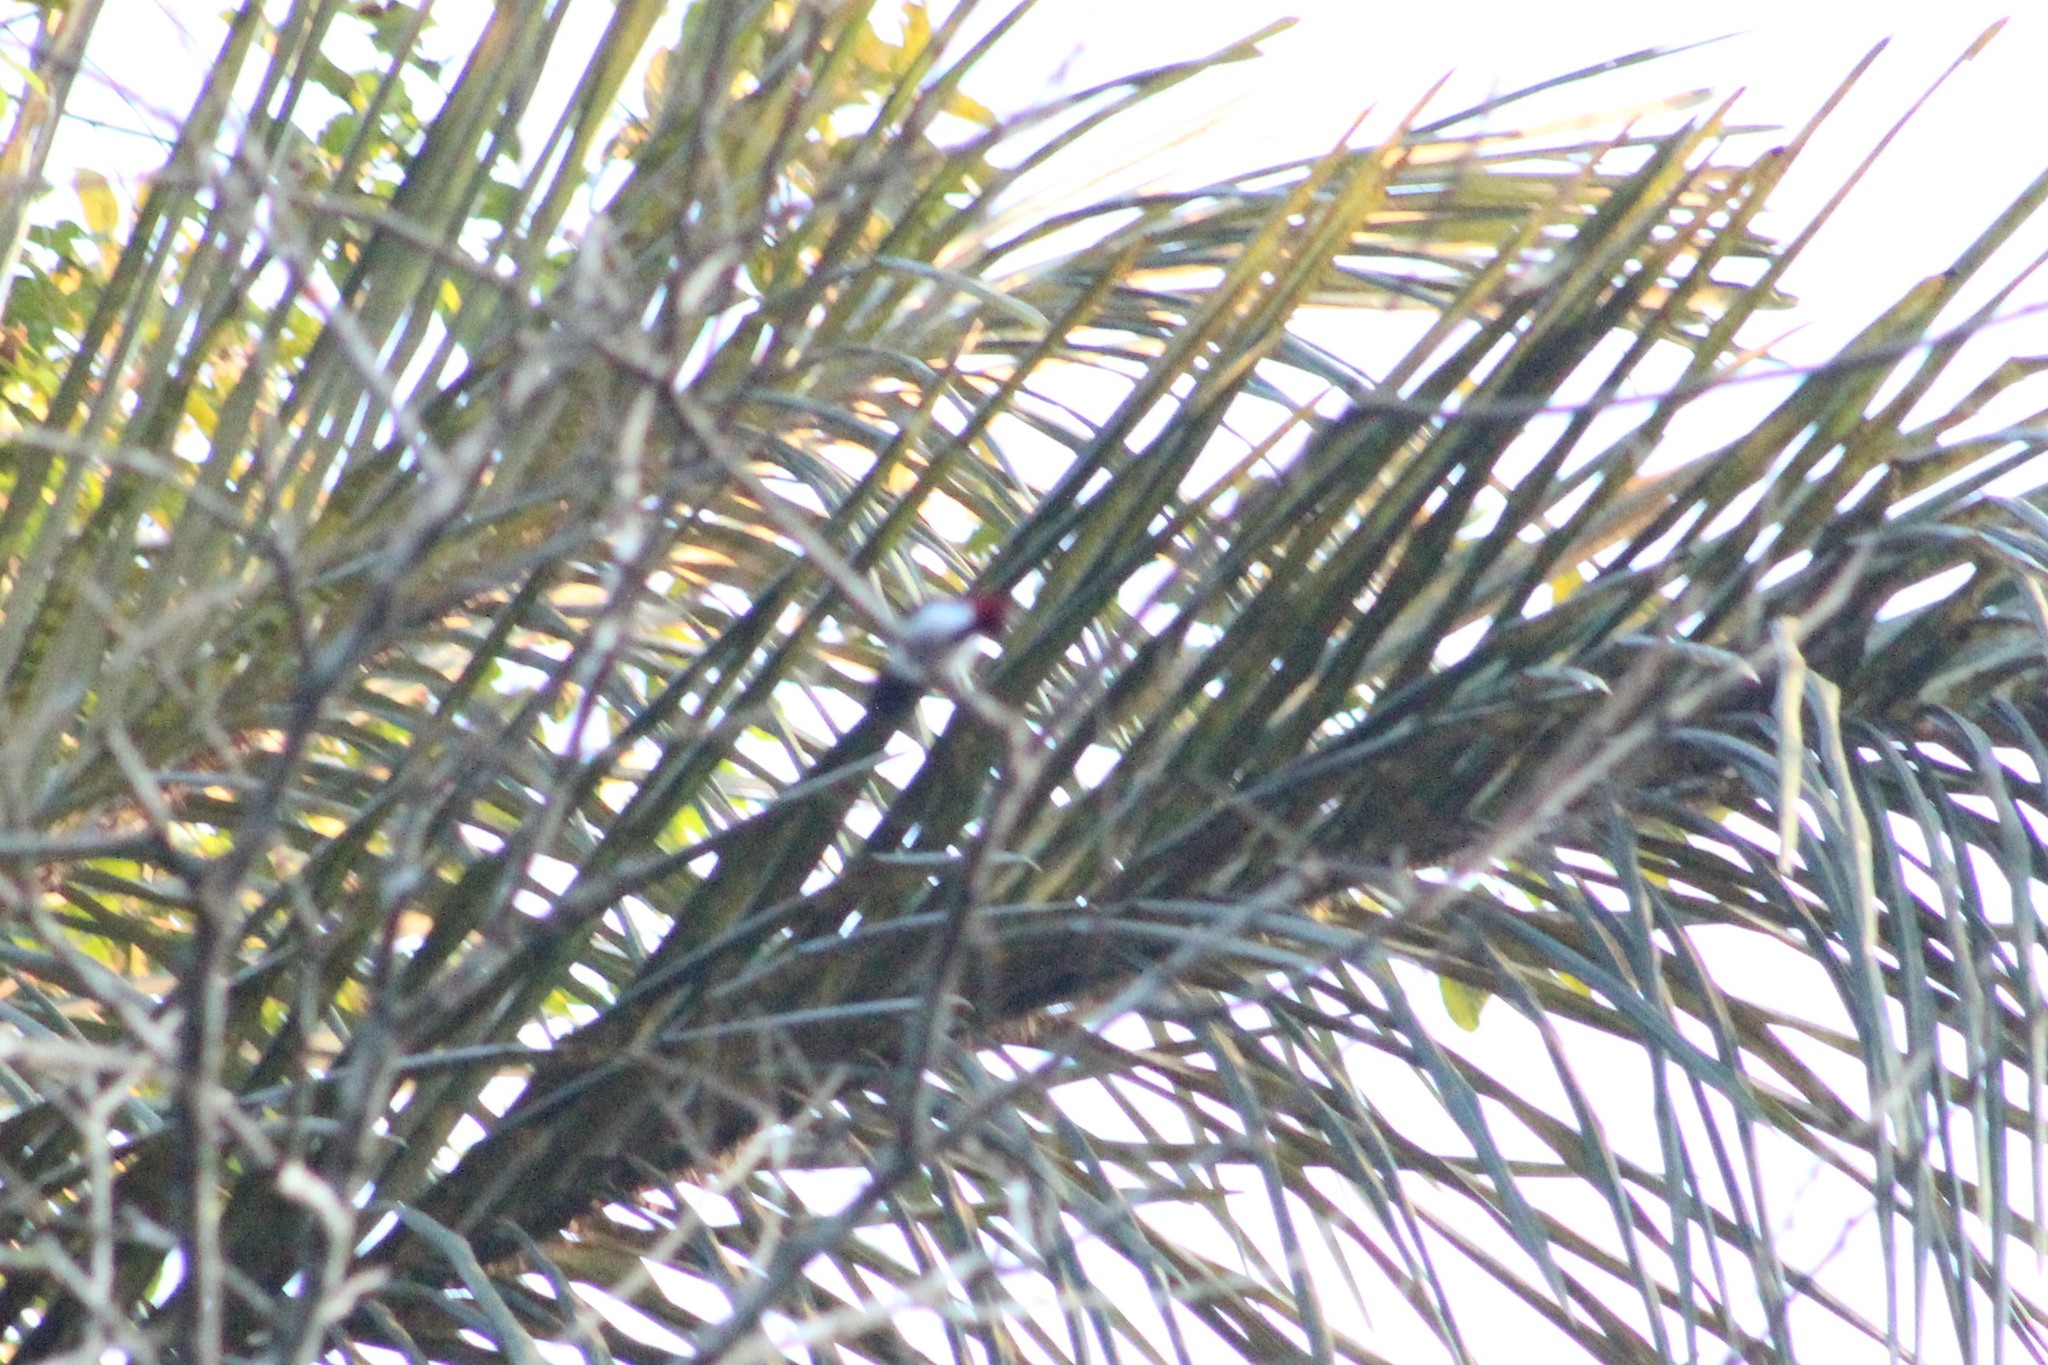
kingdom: Animalia
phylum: Chordata
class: Aves
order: Passeriformes
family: Thraupidae
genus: Paroaria
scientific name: Paroaria gularis
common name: Red-capped cardinal
